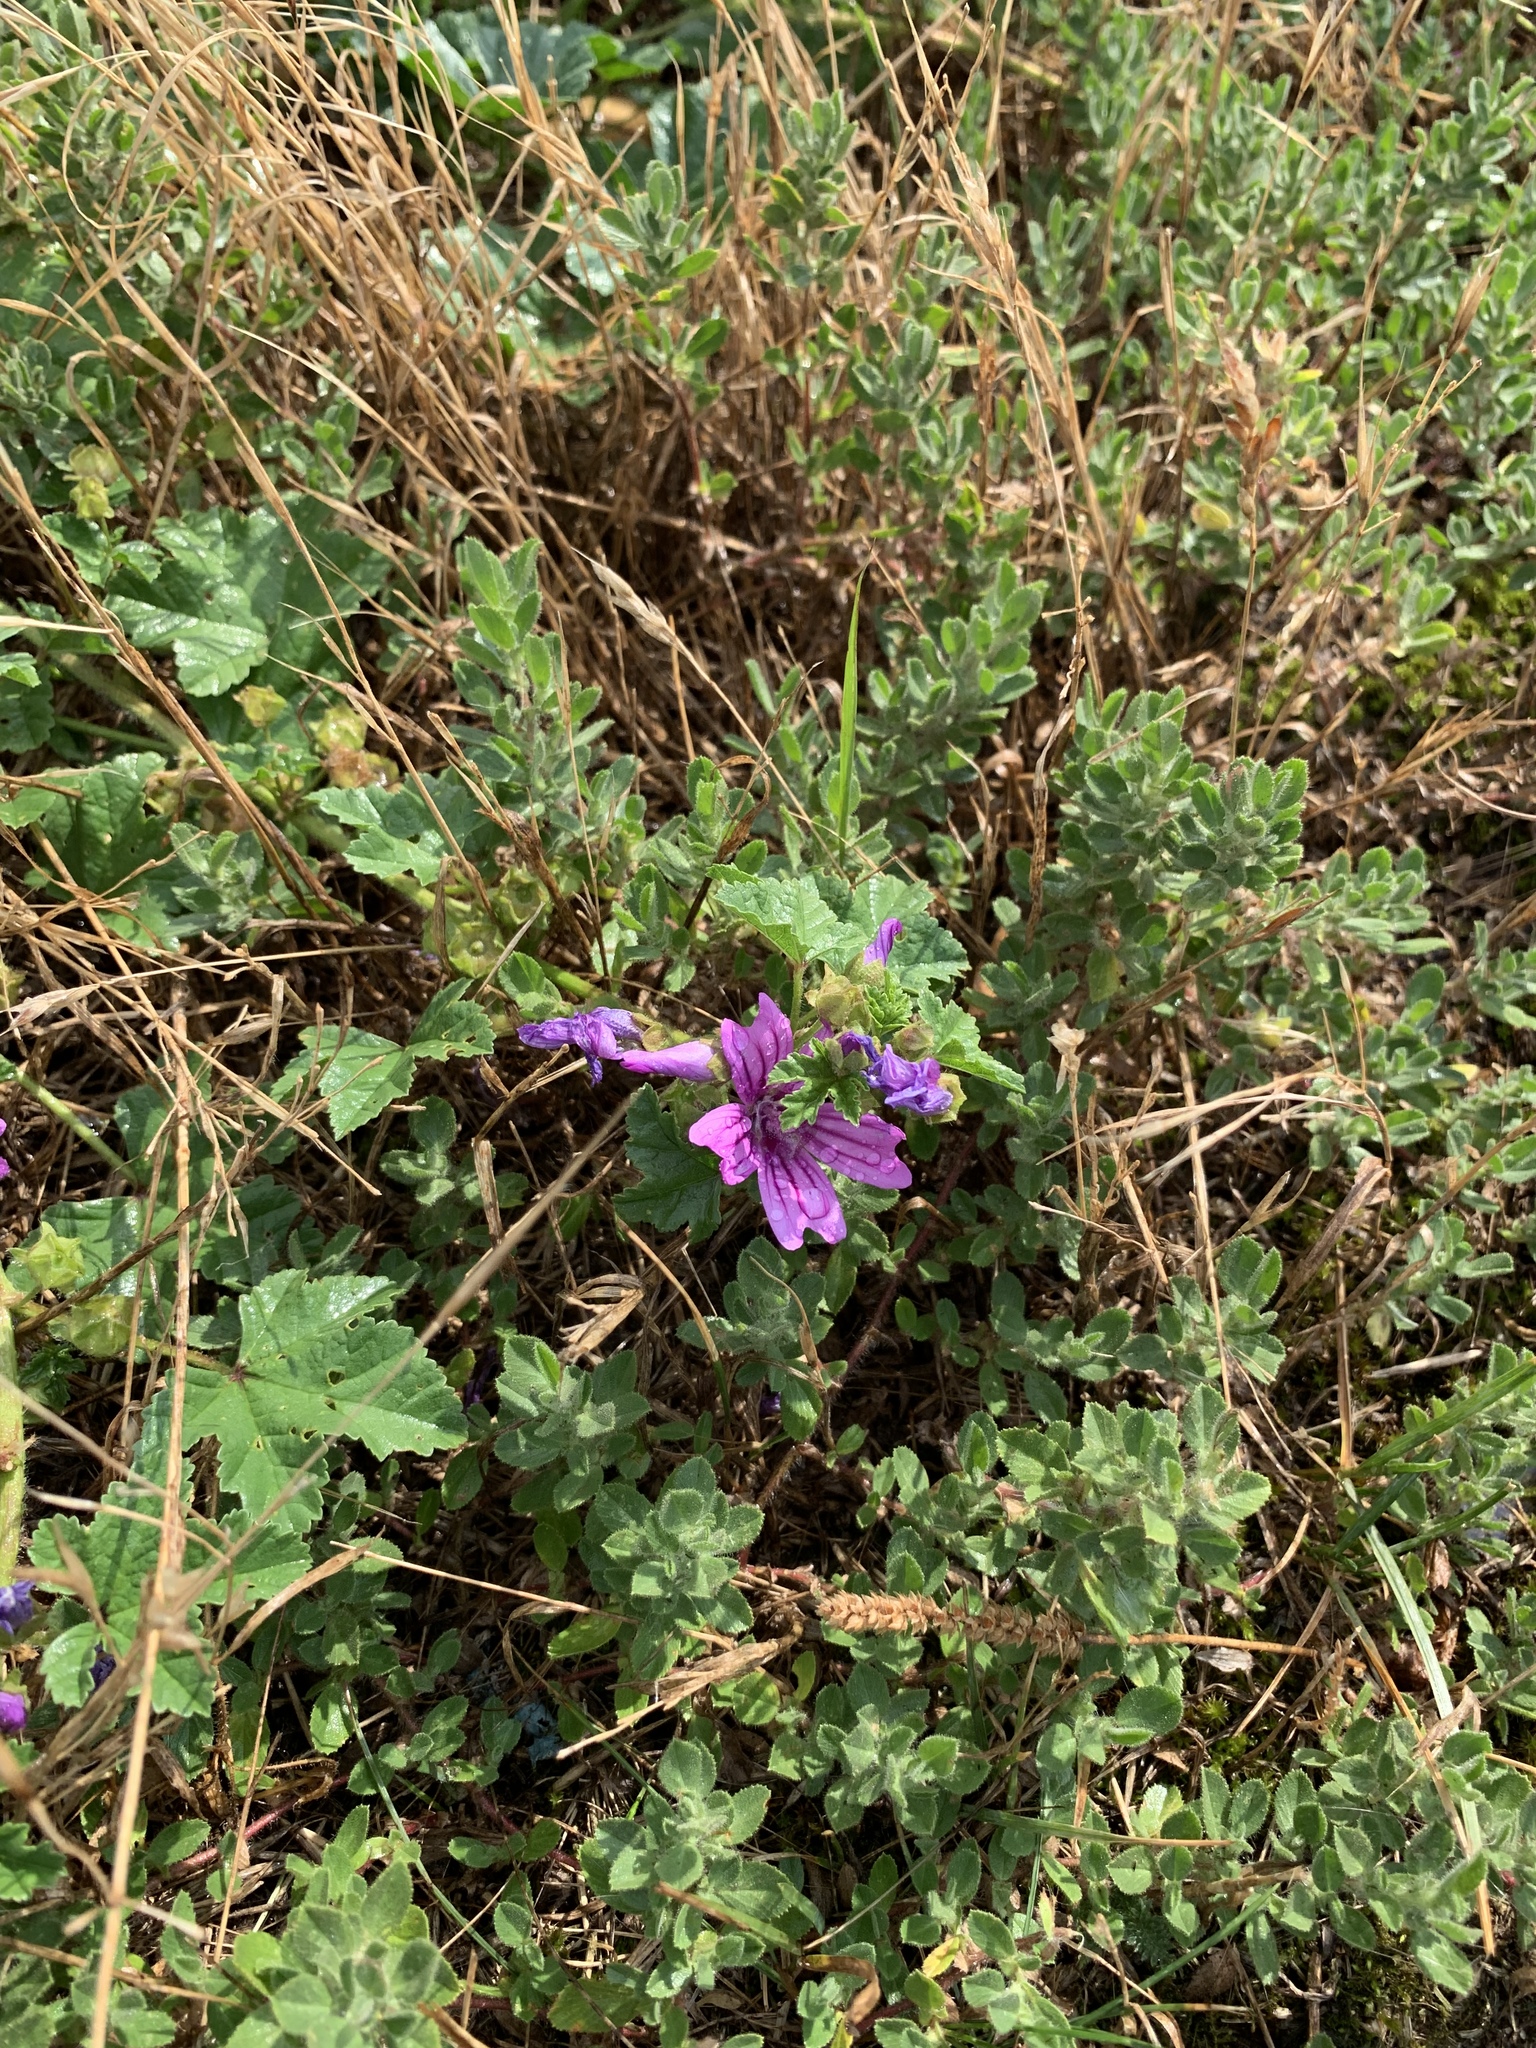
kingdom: Plantae
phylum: Tracheophyta
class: Magnoliopsida
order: Malvales
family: Malvaceae
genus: Malva
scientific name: Malva sylvestris
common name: Common mallow
